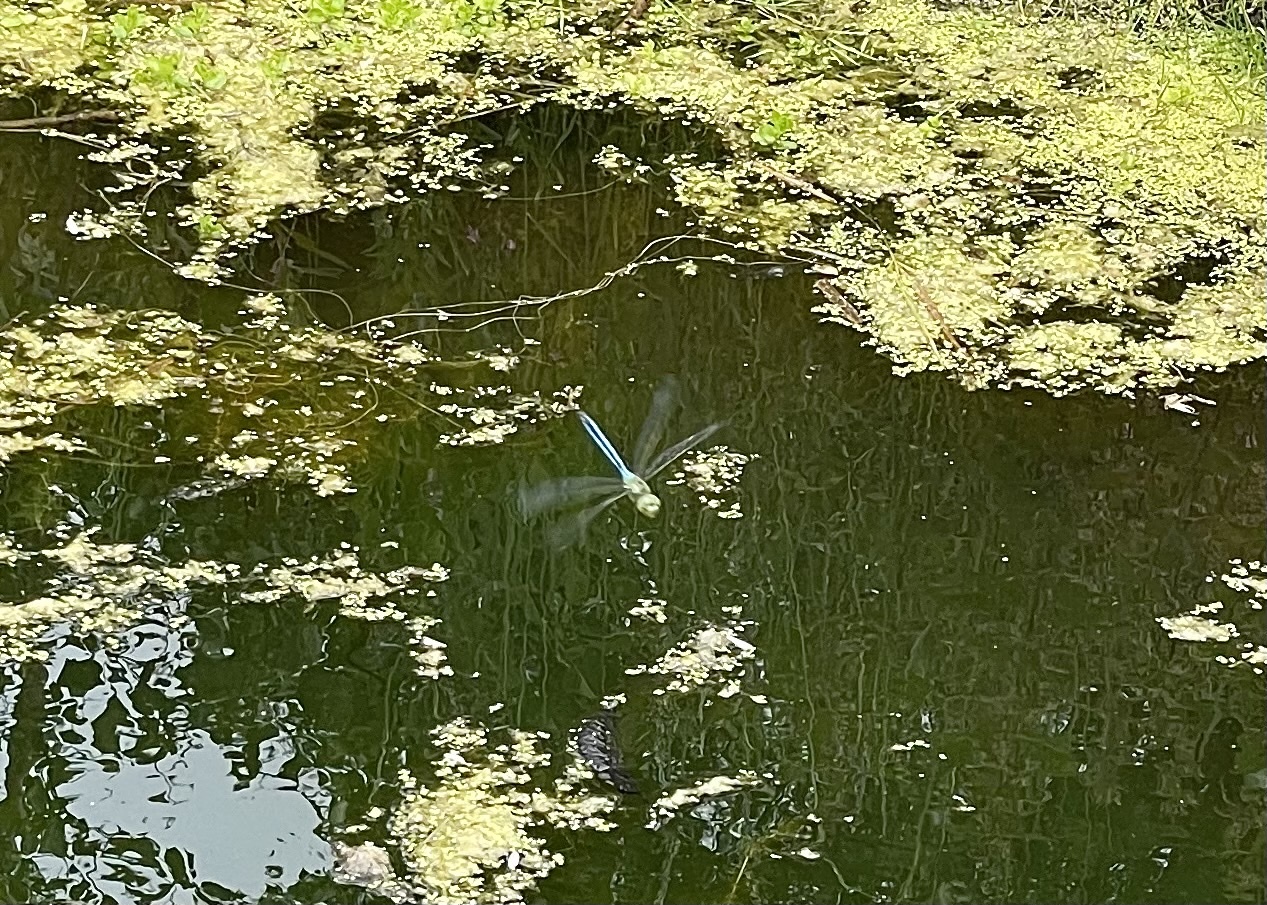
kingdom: Animalia
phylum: Arthropoda
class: Insecta
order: Odonata
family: Aeshnidae
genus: Anax
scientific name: Anax imperator
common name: Emperor dragonfly
